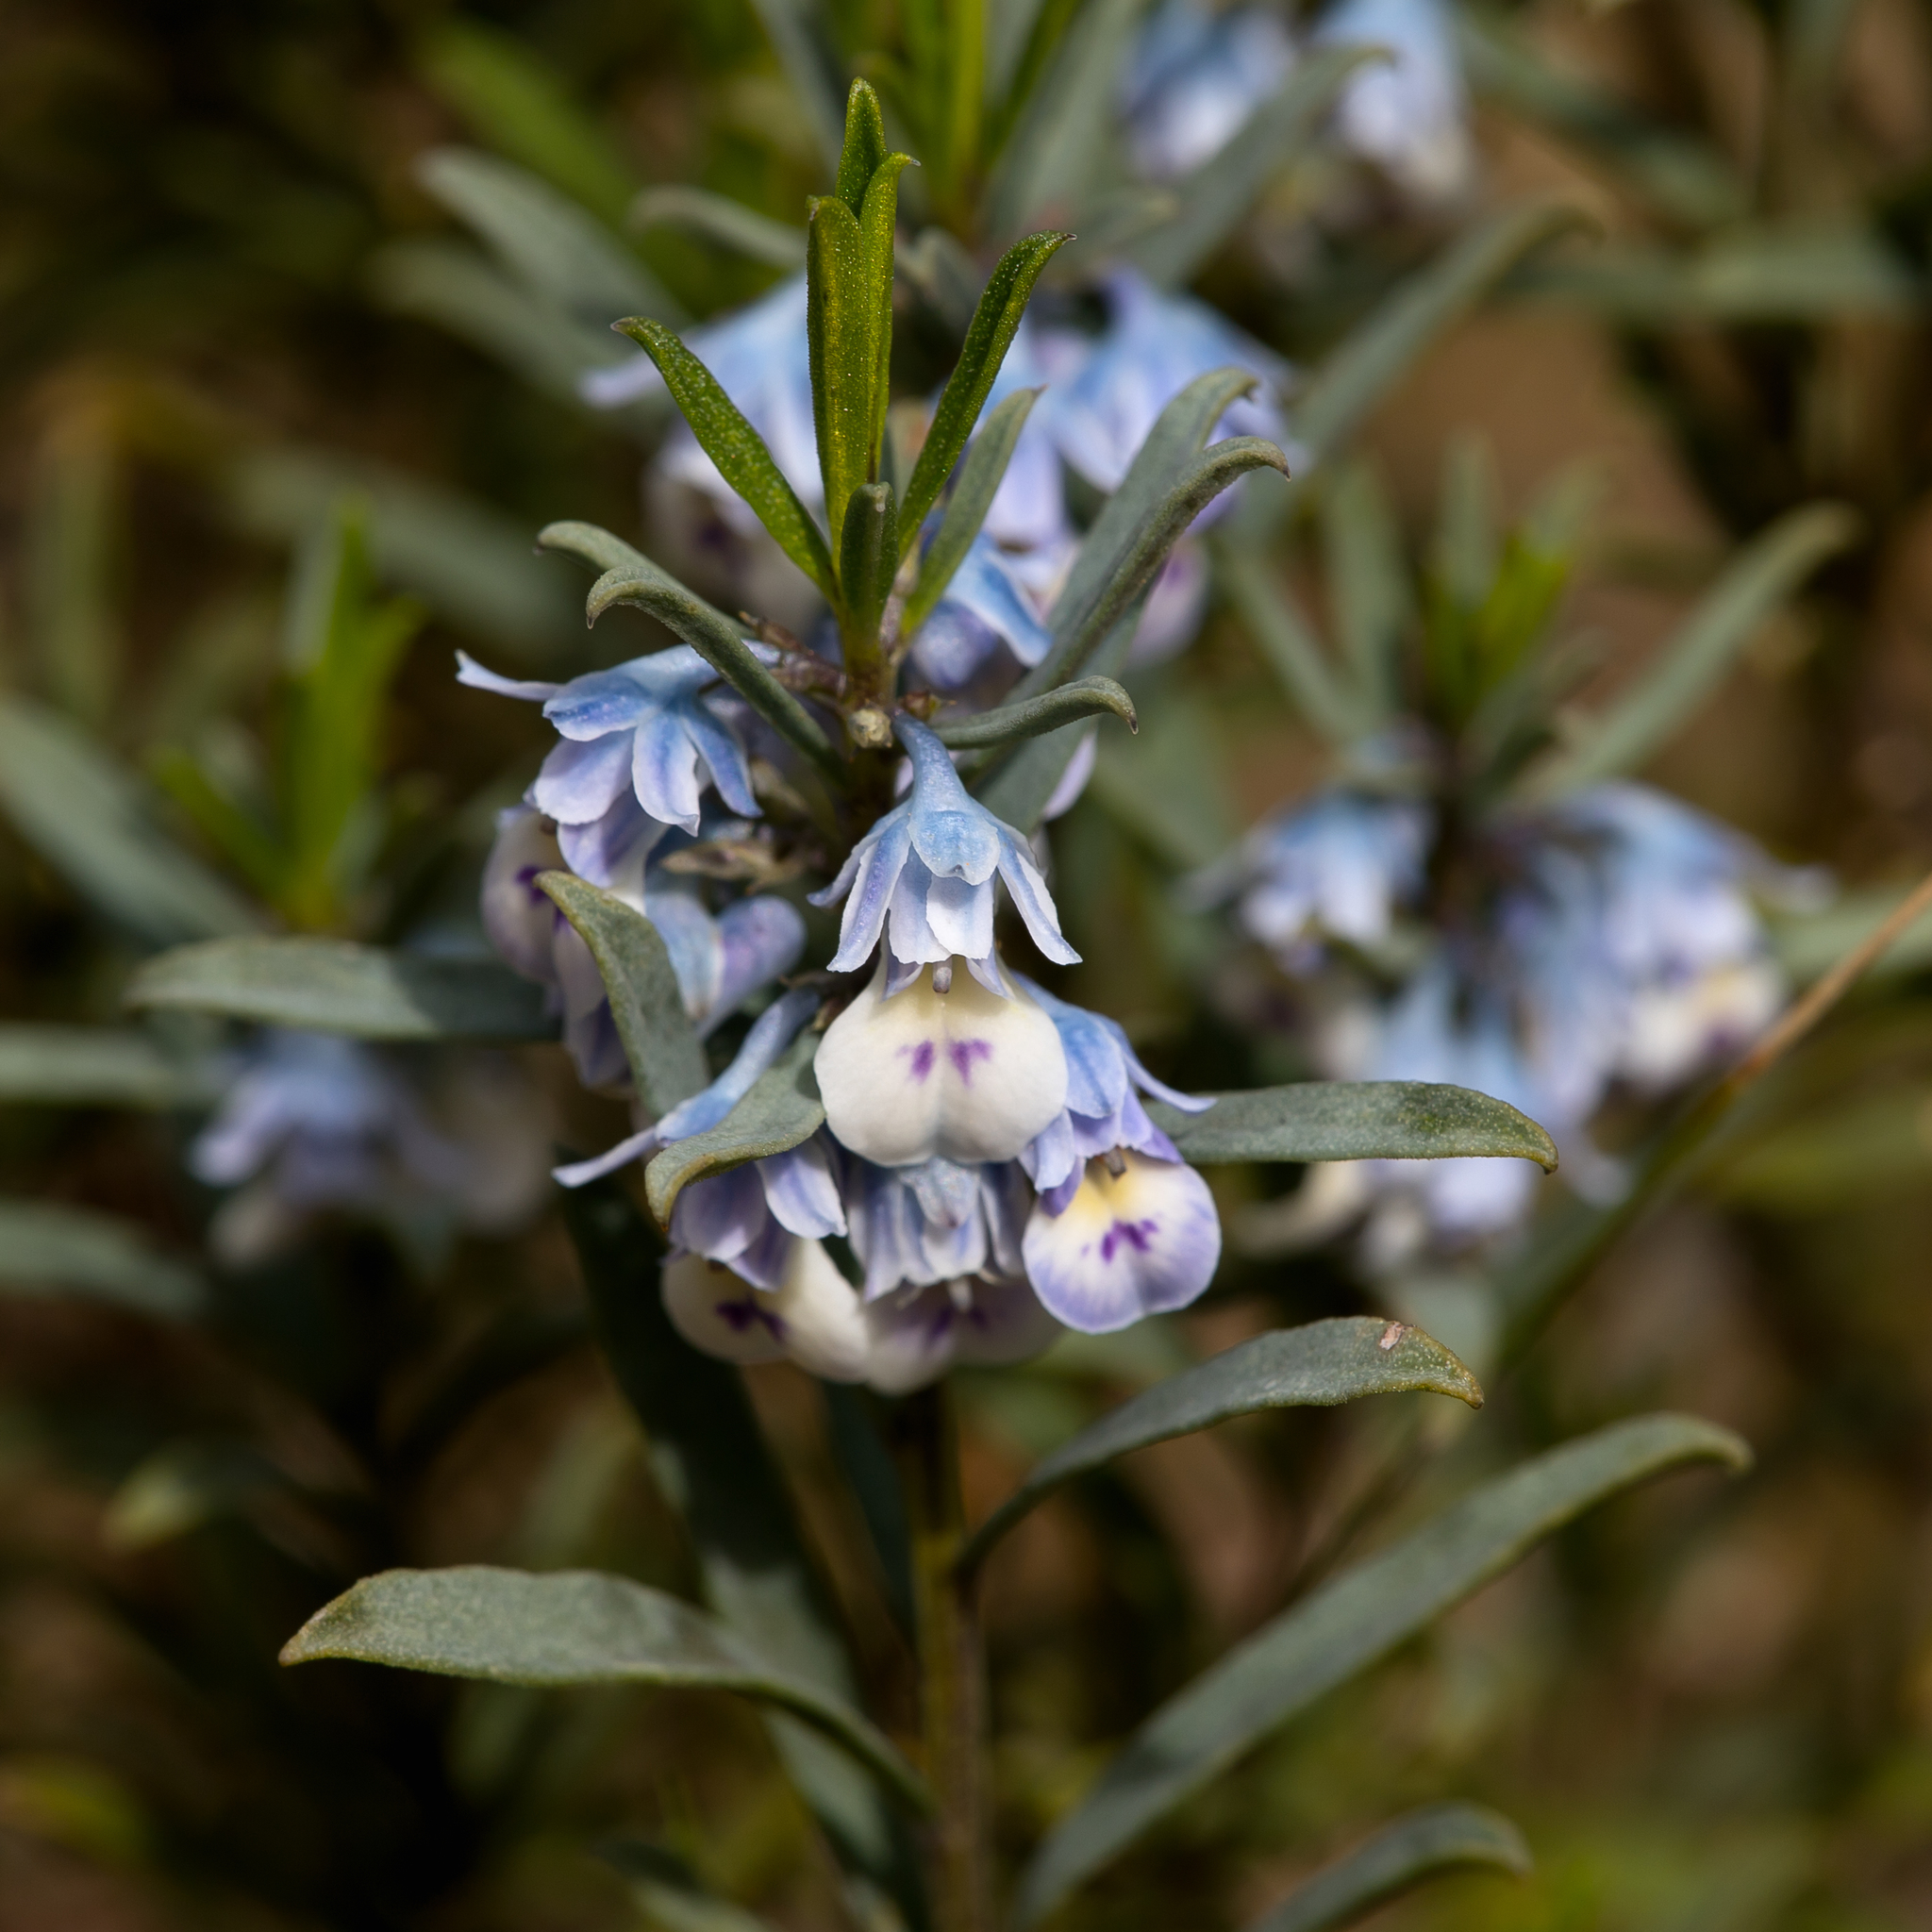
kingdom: Plantae
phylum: Tracheophyta
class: Magnoliopsida
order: Malpighiales
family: Violaceae
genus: Pigea
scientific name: Pigea floribunda
